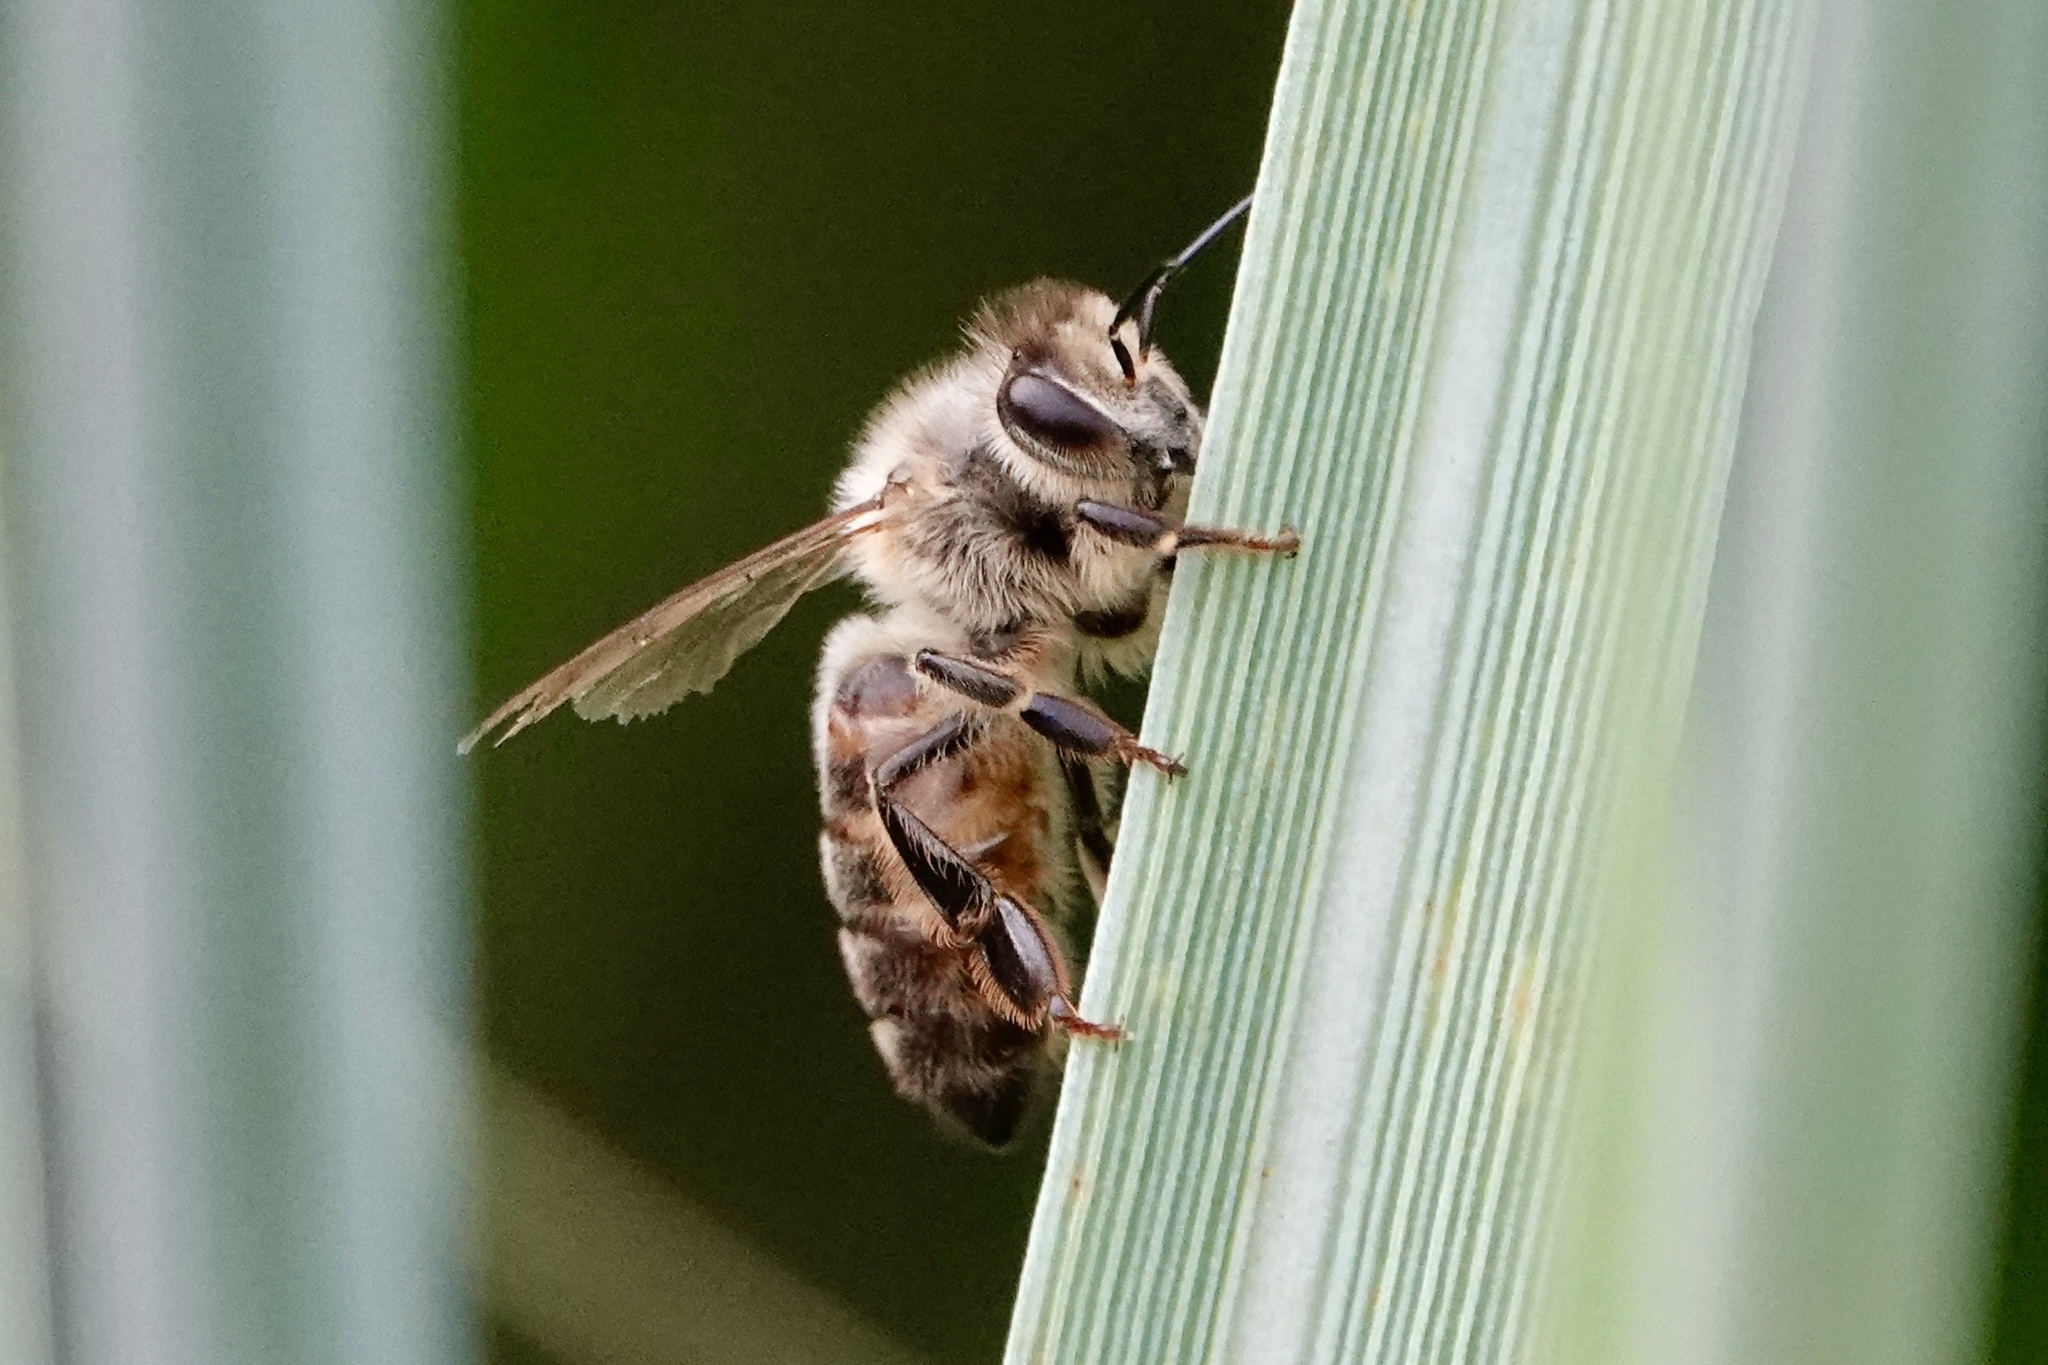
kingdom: Animalia
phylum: Arthropoda
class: Insecta
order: Hymenoptera
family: Apidae
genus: Apis
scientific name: Apis mellifera
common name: Honey bee
